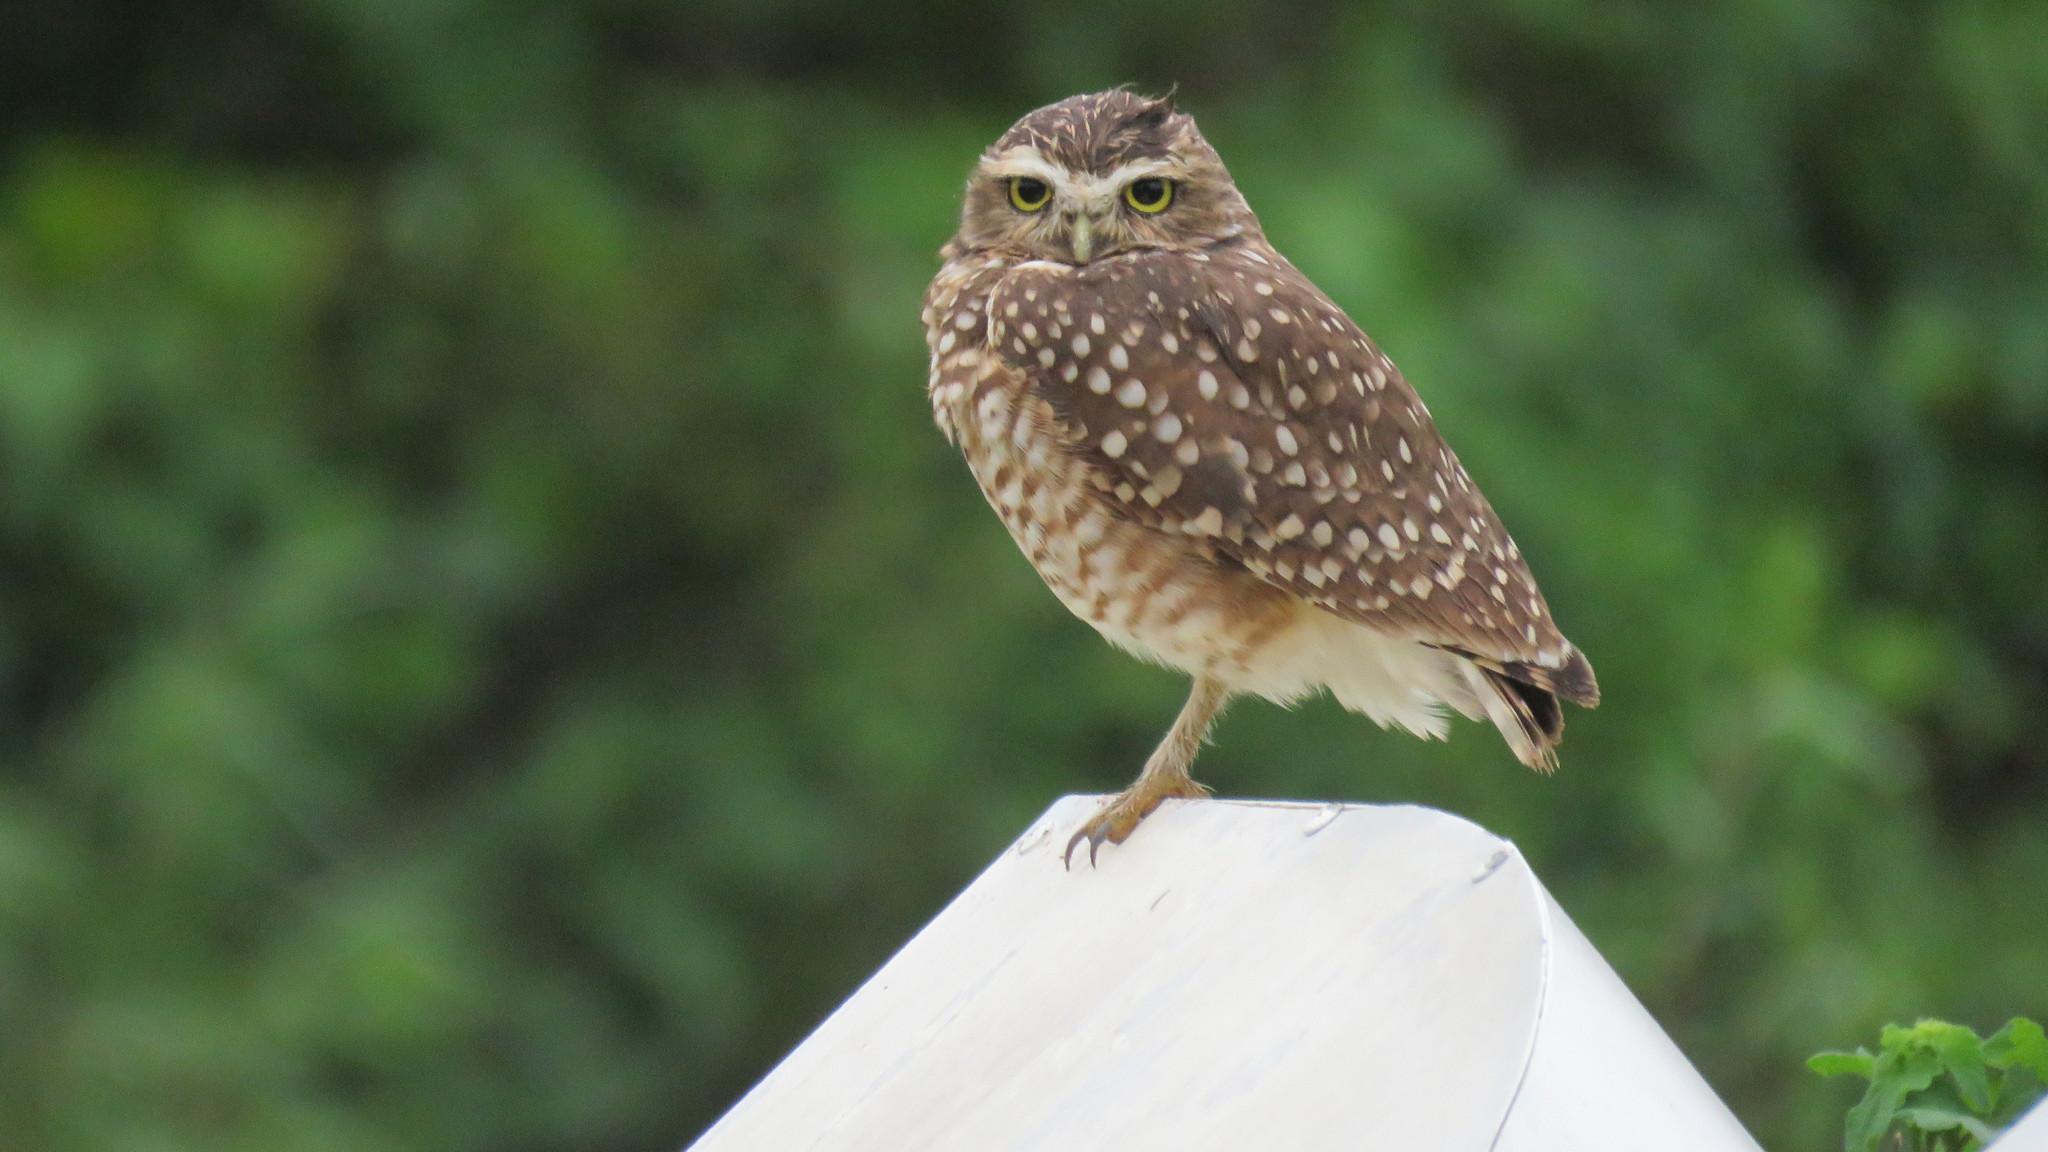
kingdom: Animalia
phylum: Chordata
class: Aves
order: Strigiformes
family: Strigidae
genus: Athene
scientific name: Athene cunicularia
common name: Burrowing owl
